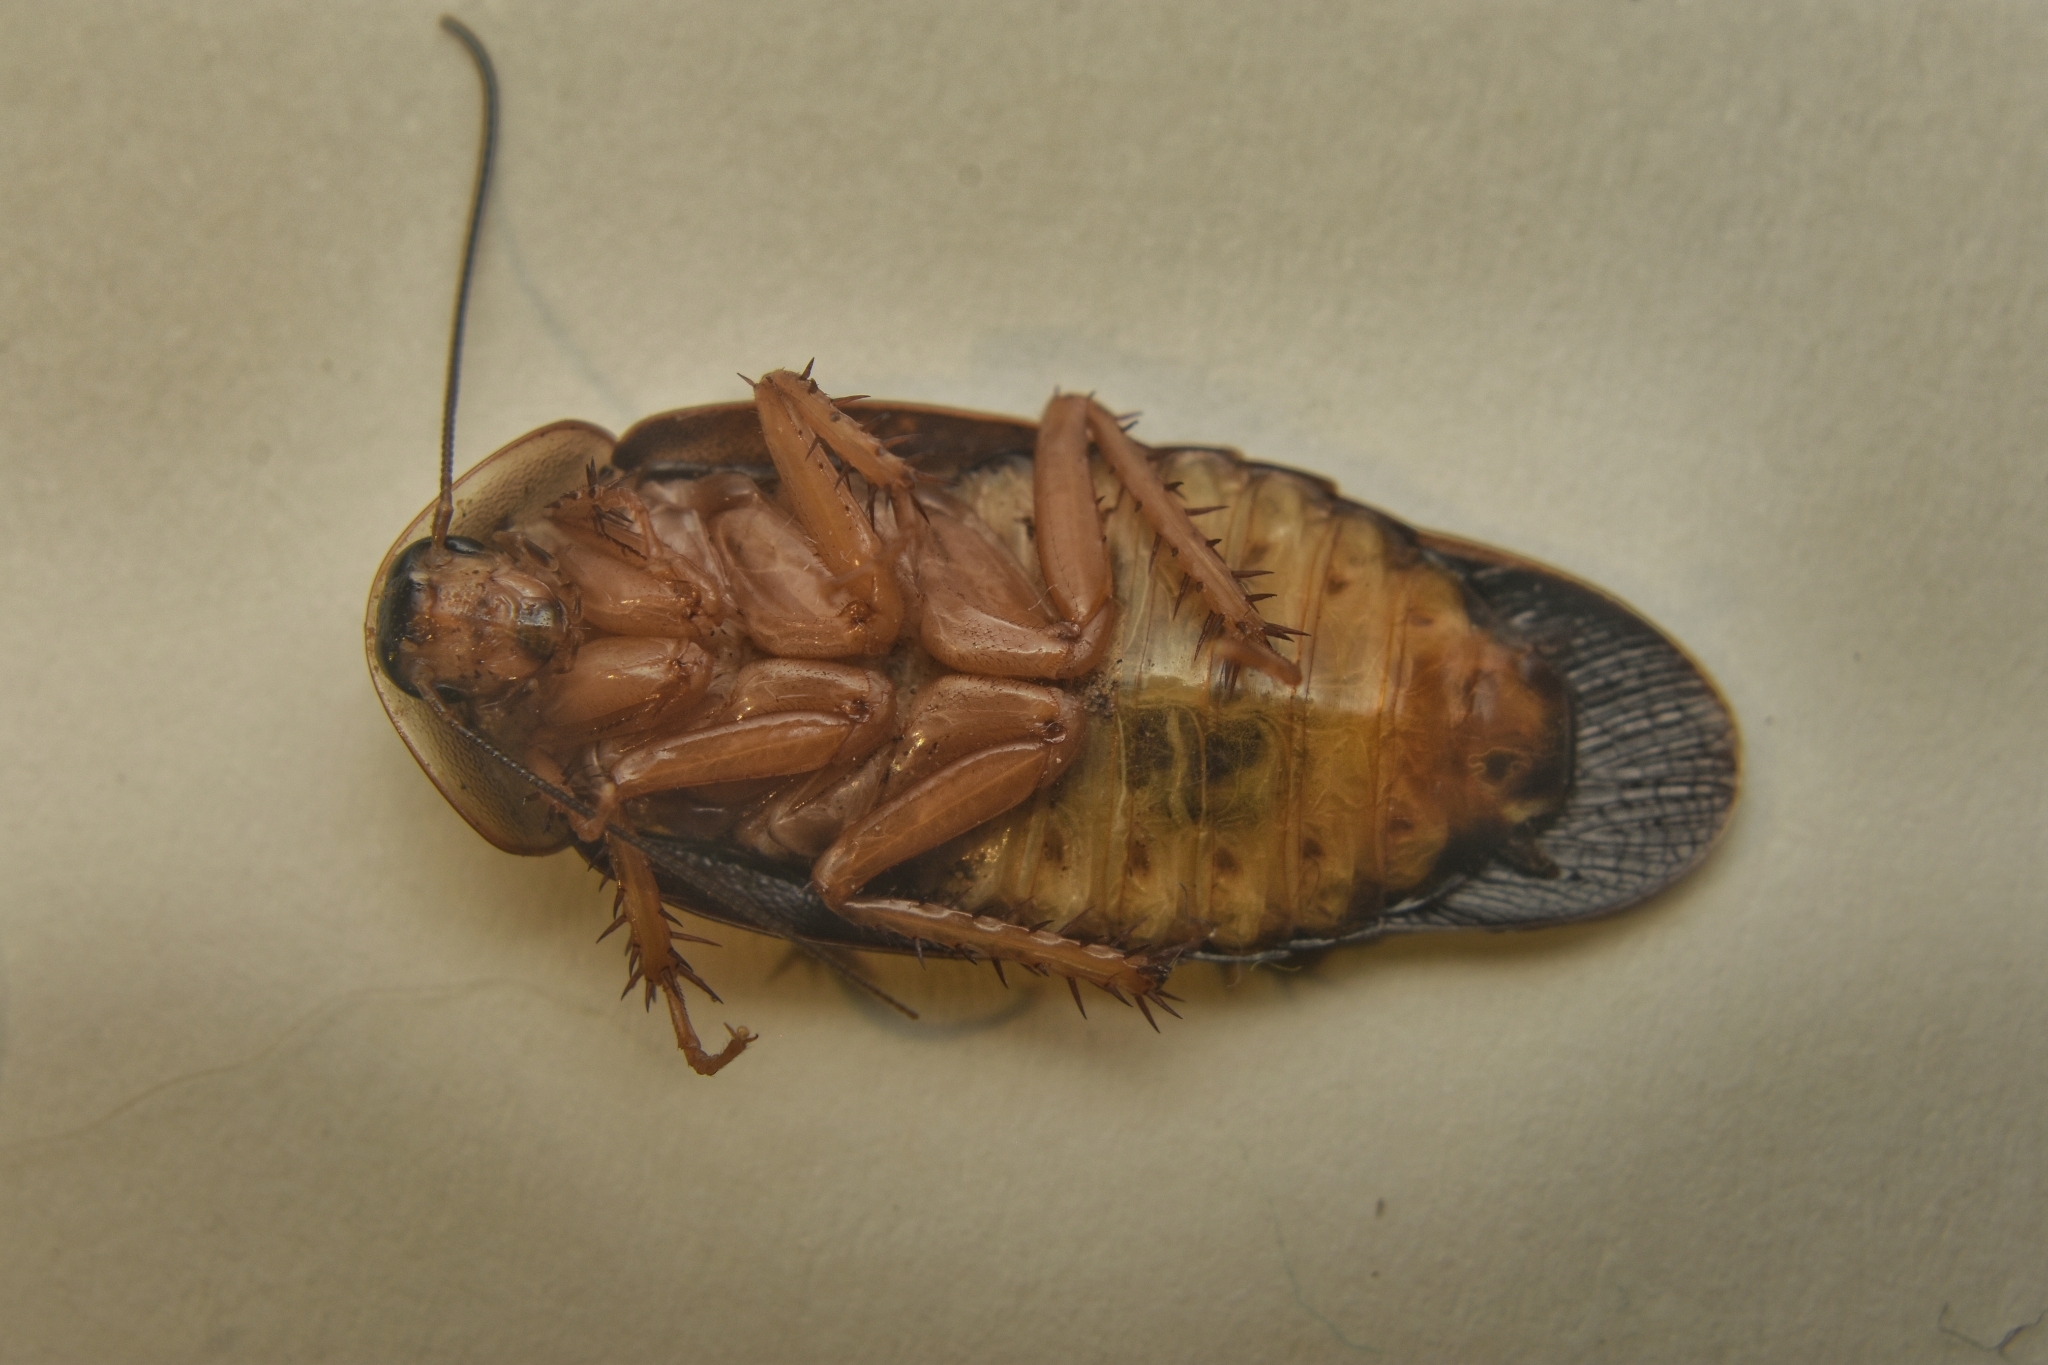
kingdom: Animalia
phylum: Arthropoda
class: Insecta
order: Blattodea
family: Blaberidae
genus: Hyporhicnoda
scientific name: Hyporhicnoda litomorpha
